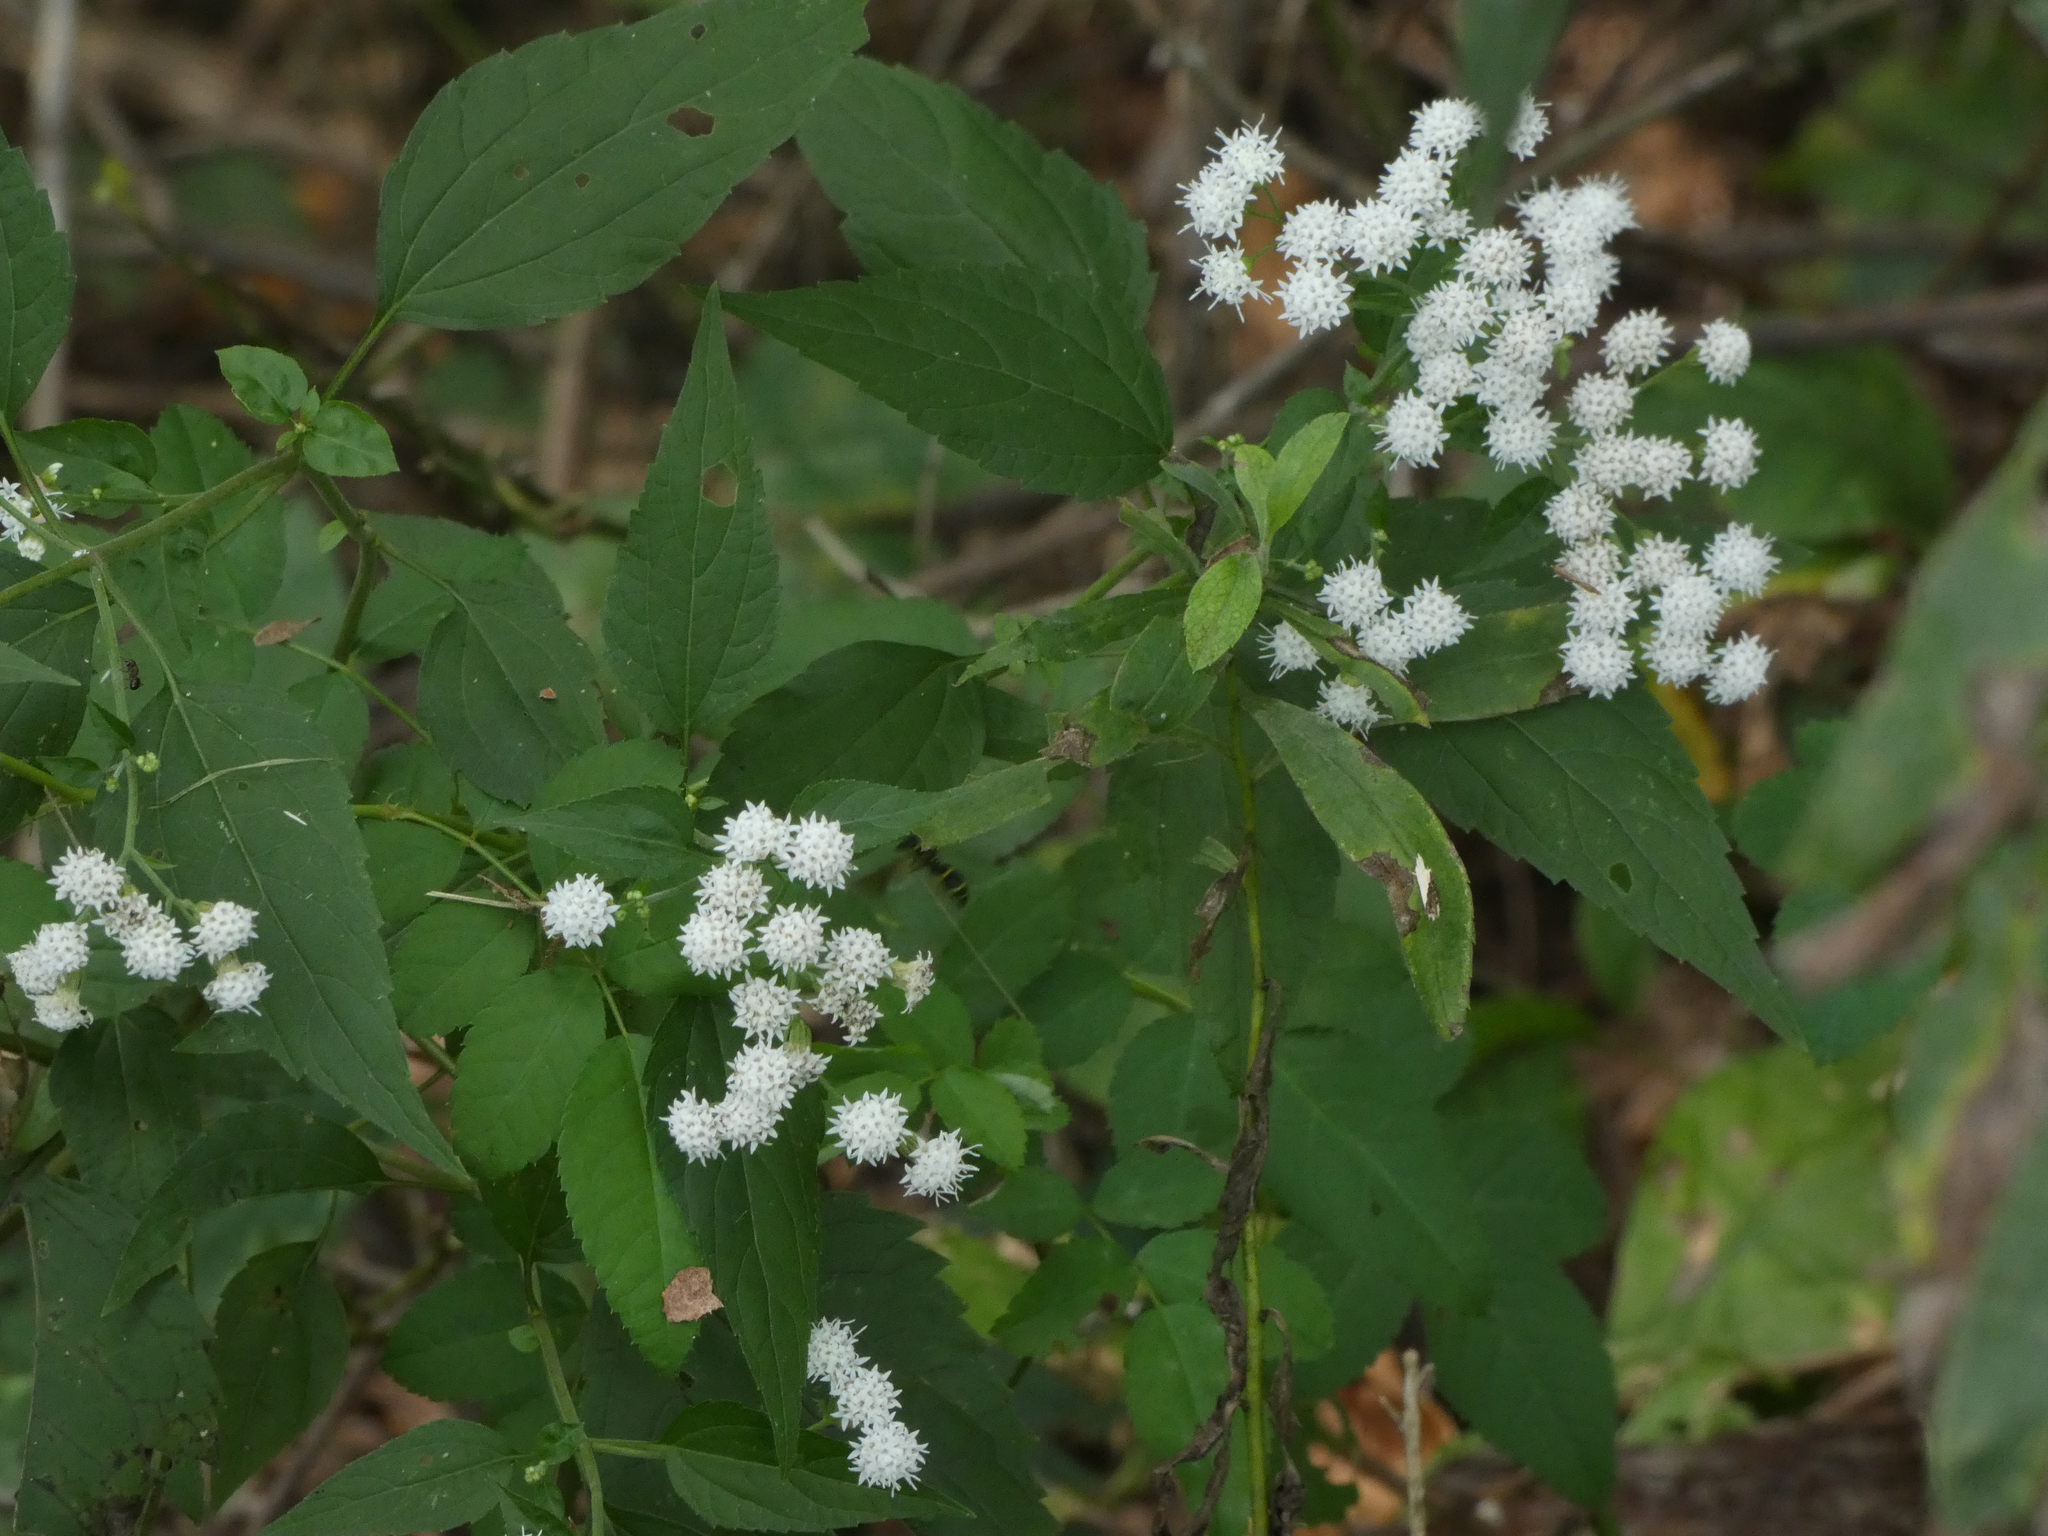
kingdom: Plantae
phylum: Tracheophyta
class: Magnoliopsida
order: Asterales
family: Asteraceae
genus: Ageratina
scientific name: Ageratina altissima
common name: White snakeroot
